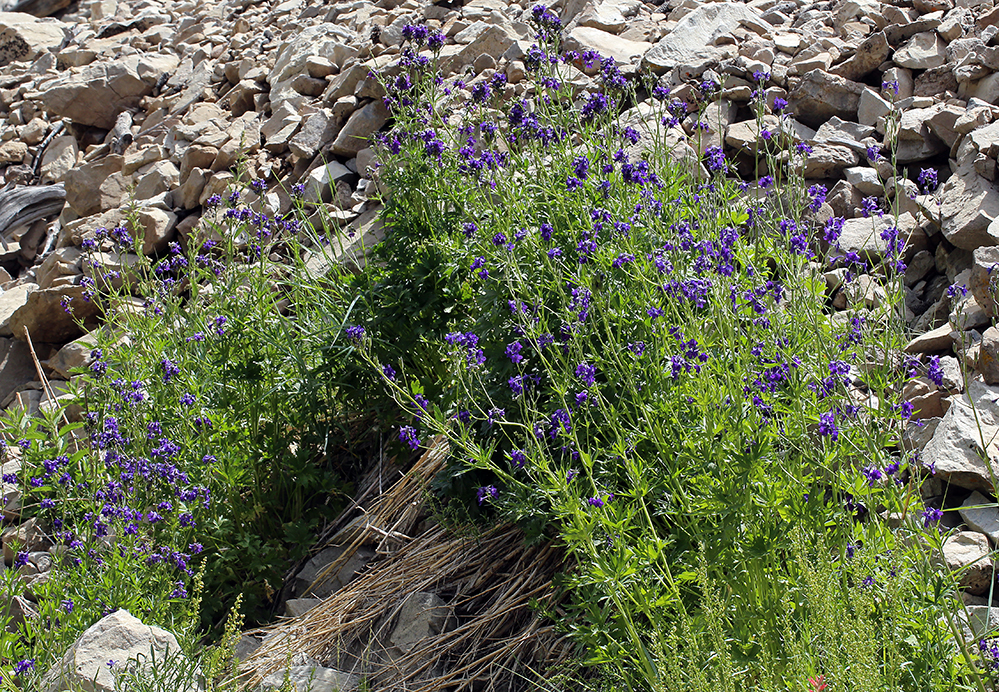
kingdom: Plantae
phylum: Tracheophyta
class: Magnoliopsida
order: Ranunculales
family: Ranunculaceae
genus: Delphinium
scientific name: Delphinium polycladon
